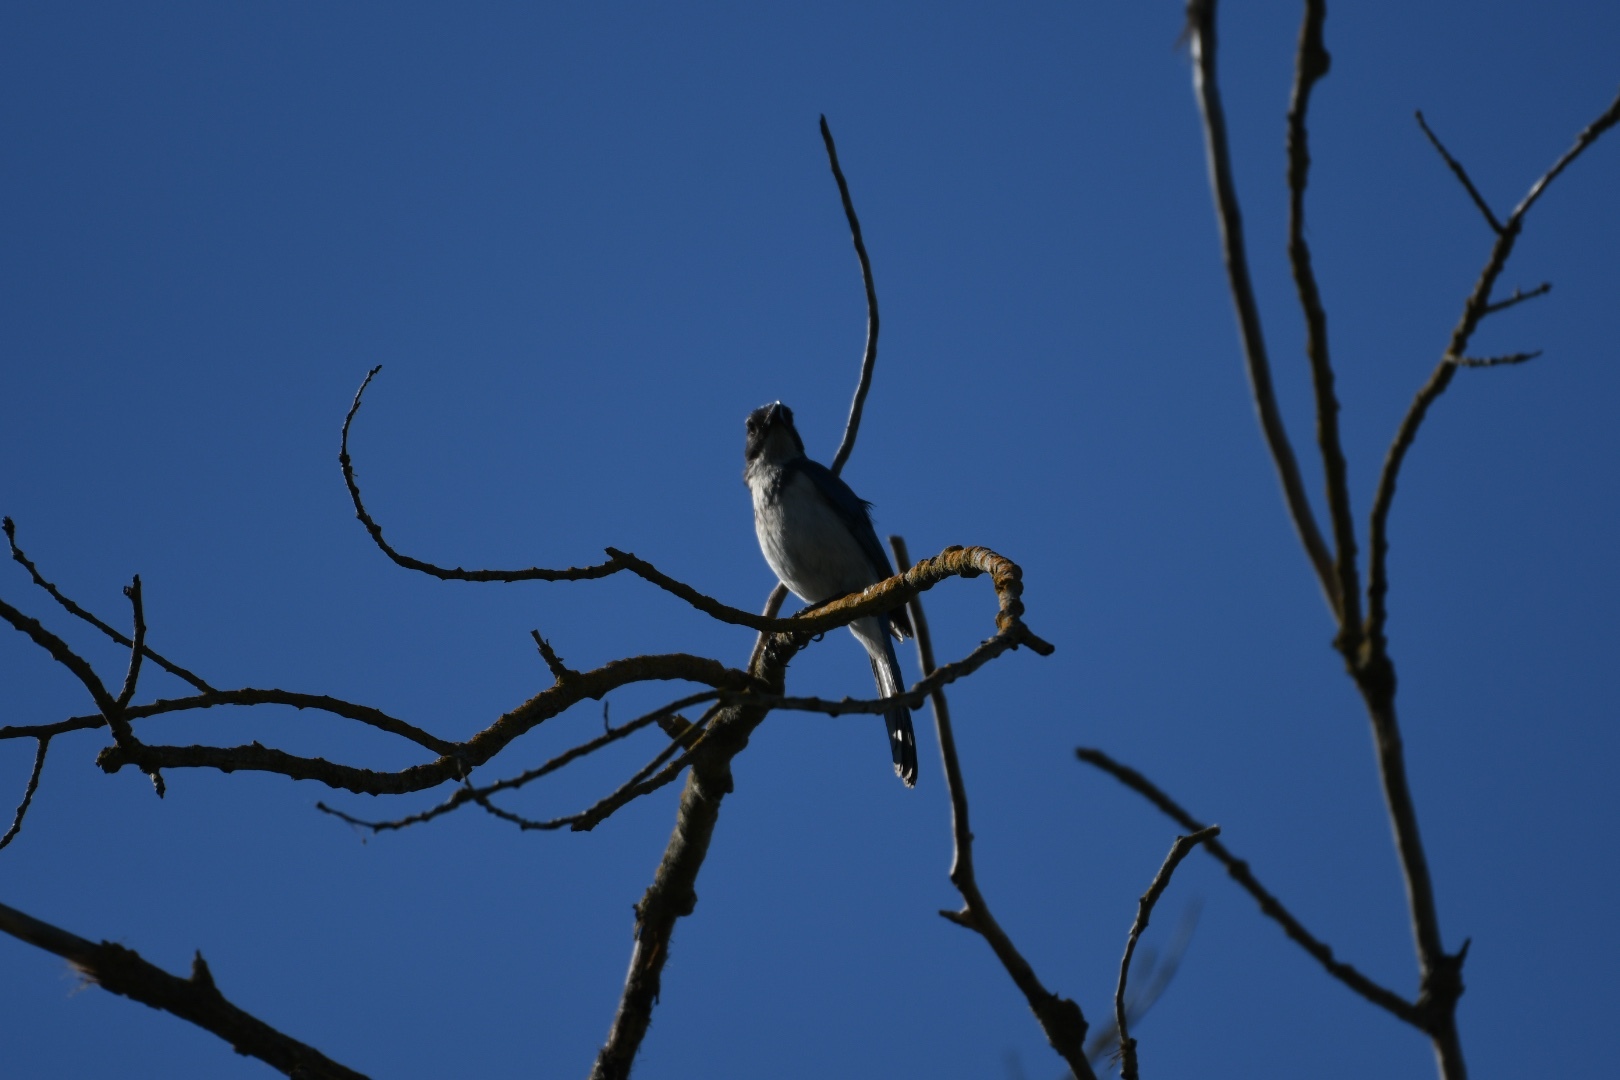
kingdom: Animalia
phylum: Chordata
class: Aves
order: Passeriformes
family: Corvidae
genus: Aphelocoma
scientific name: Aphelocoma californica
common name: California scrub-jay
